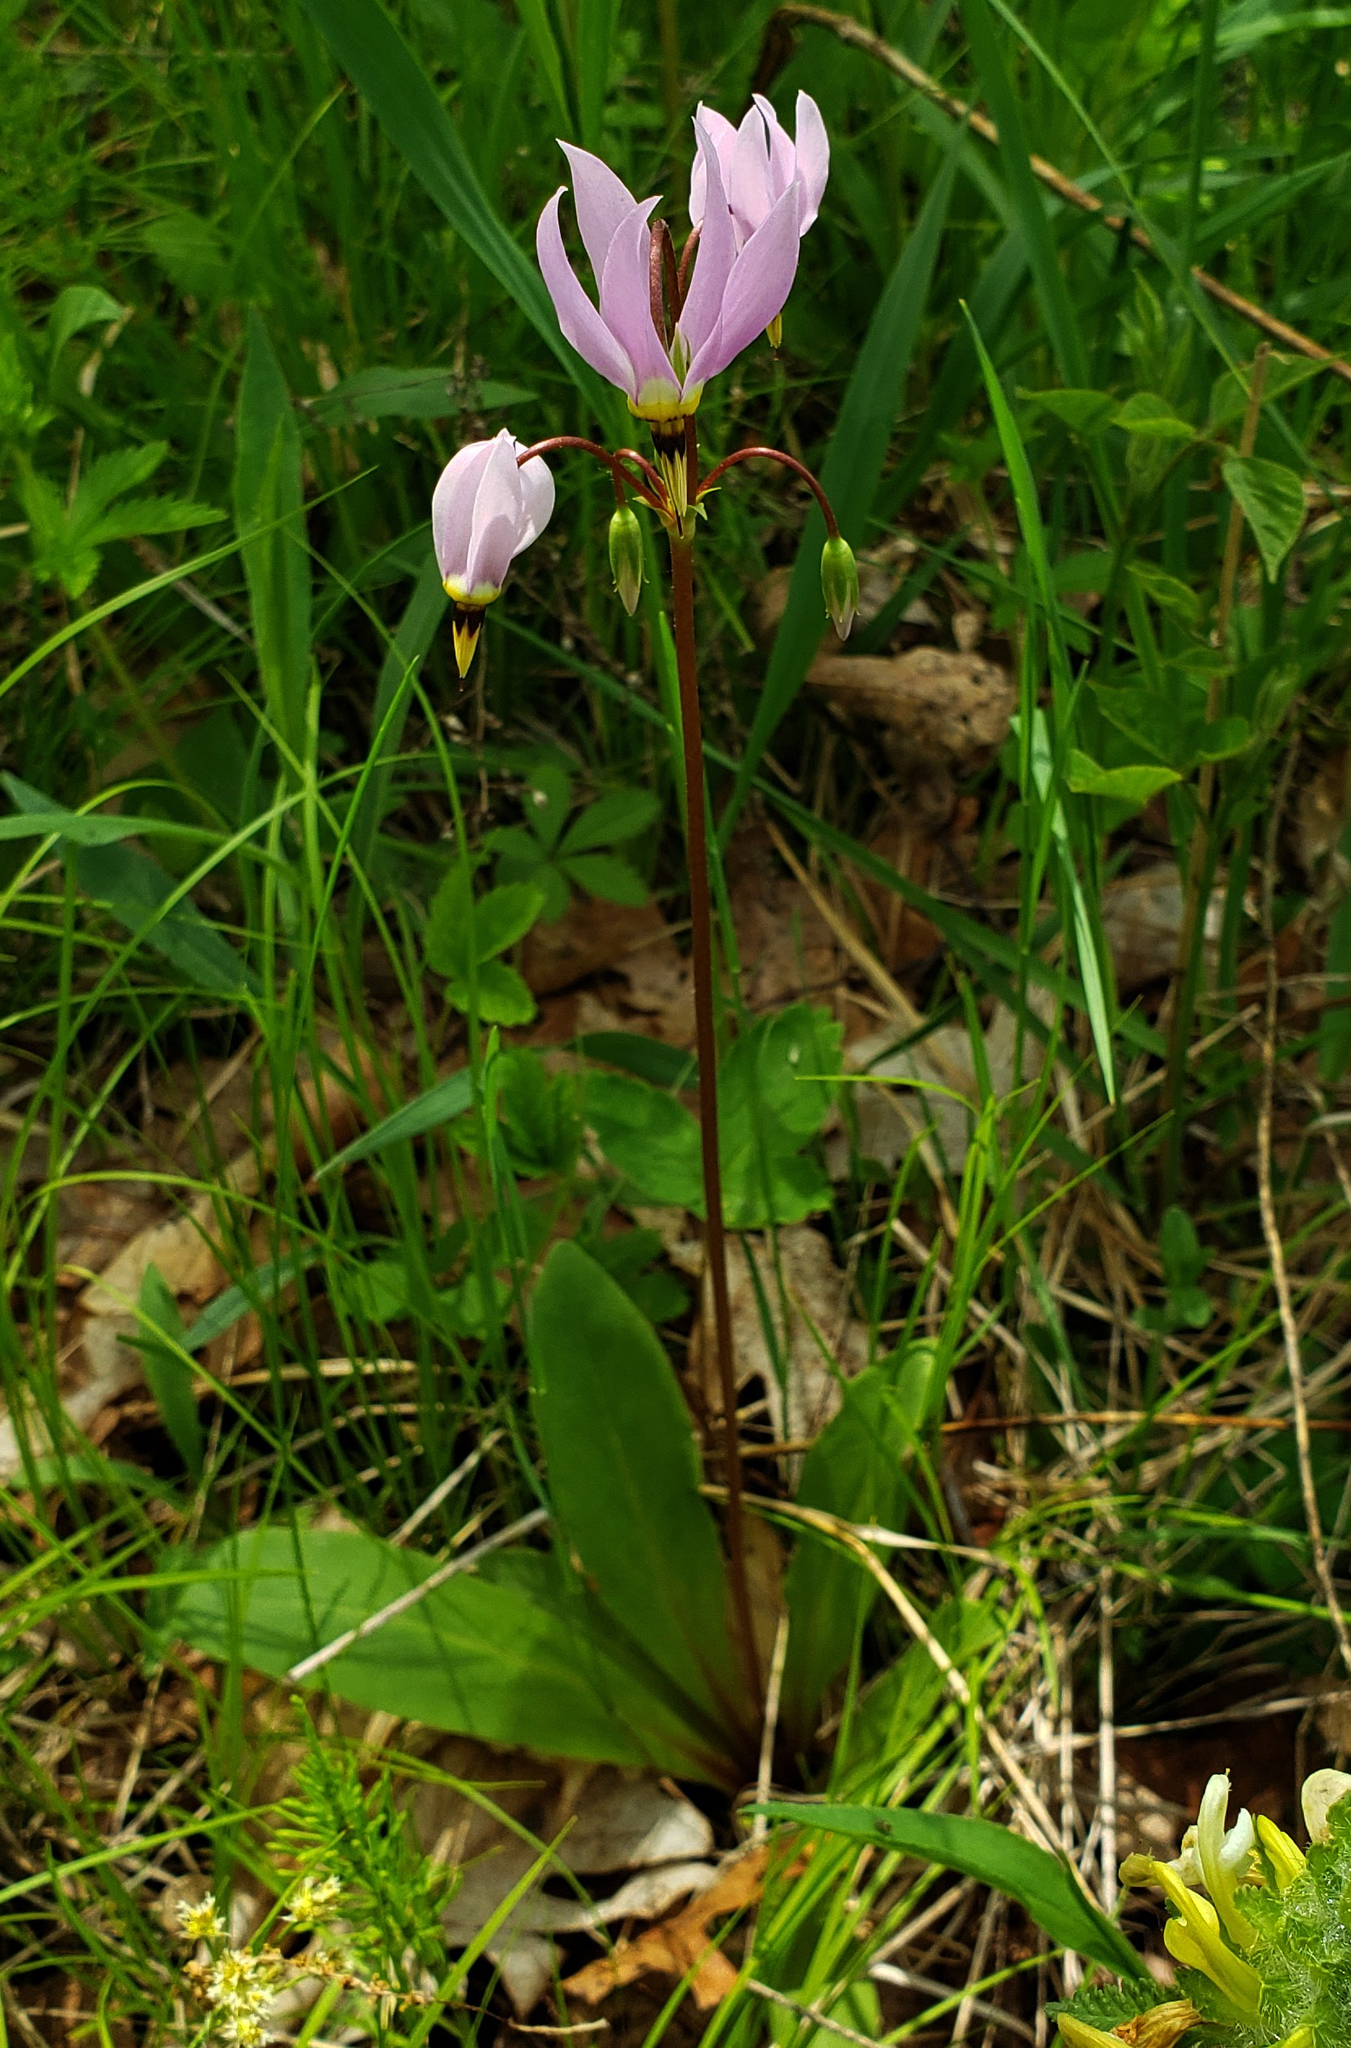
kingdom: Plantae
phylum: Tracheophyta
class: Magnoliopsida
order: Ericales
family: Primulaceae
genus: Dodecatheon
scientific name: Dodecatheon meadia
